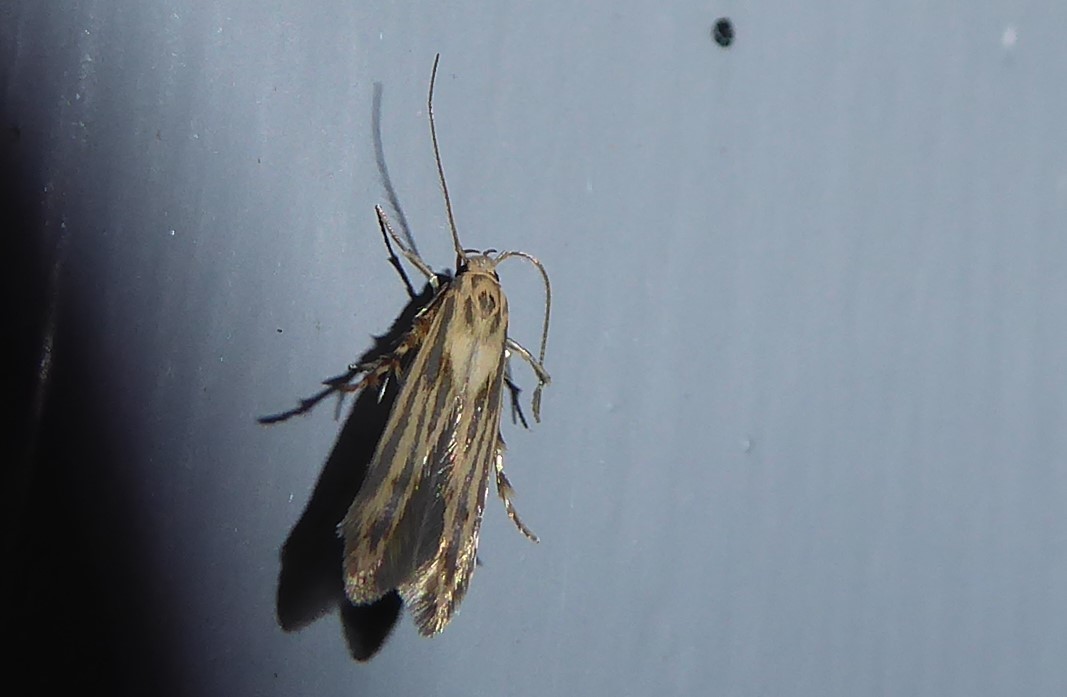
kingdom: Animalia
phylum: Arthropoda
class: Insecta
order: Lepidoptera
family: Stathmopodidae
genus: Stathmopoda
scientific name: Stathmopoda plumbiflua
